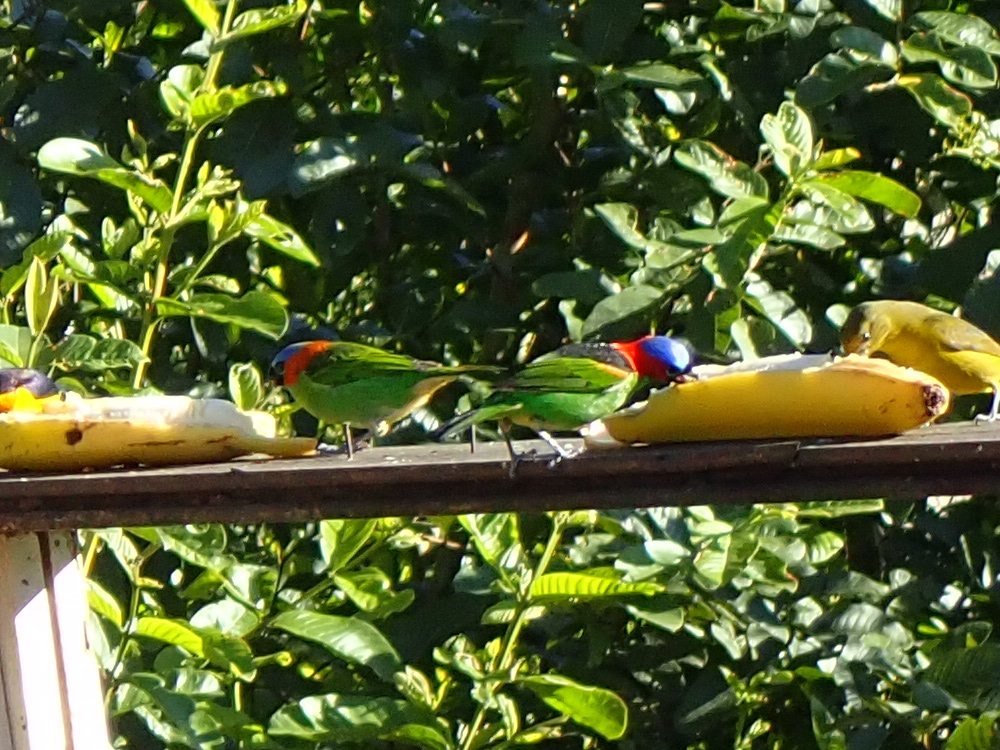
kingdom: Animalia
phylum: Chordata
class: Aves
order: Passeriformes
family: Thraupidae
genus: Tangara
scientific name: Tangara cyanocephala
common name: Red-necked tanager
